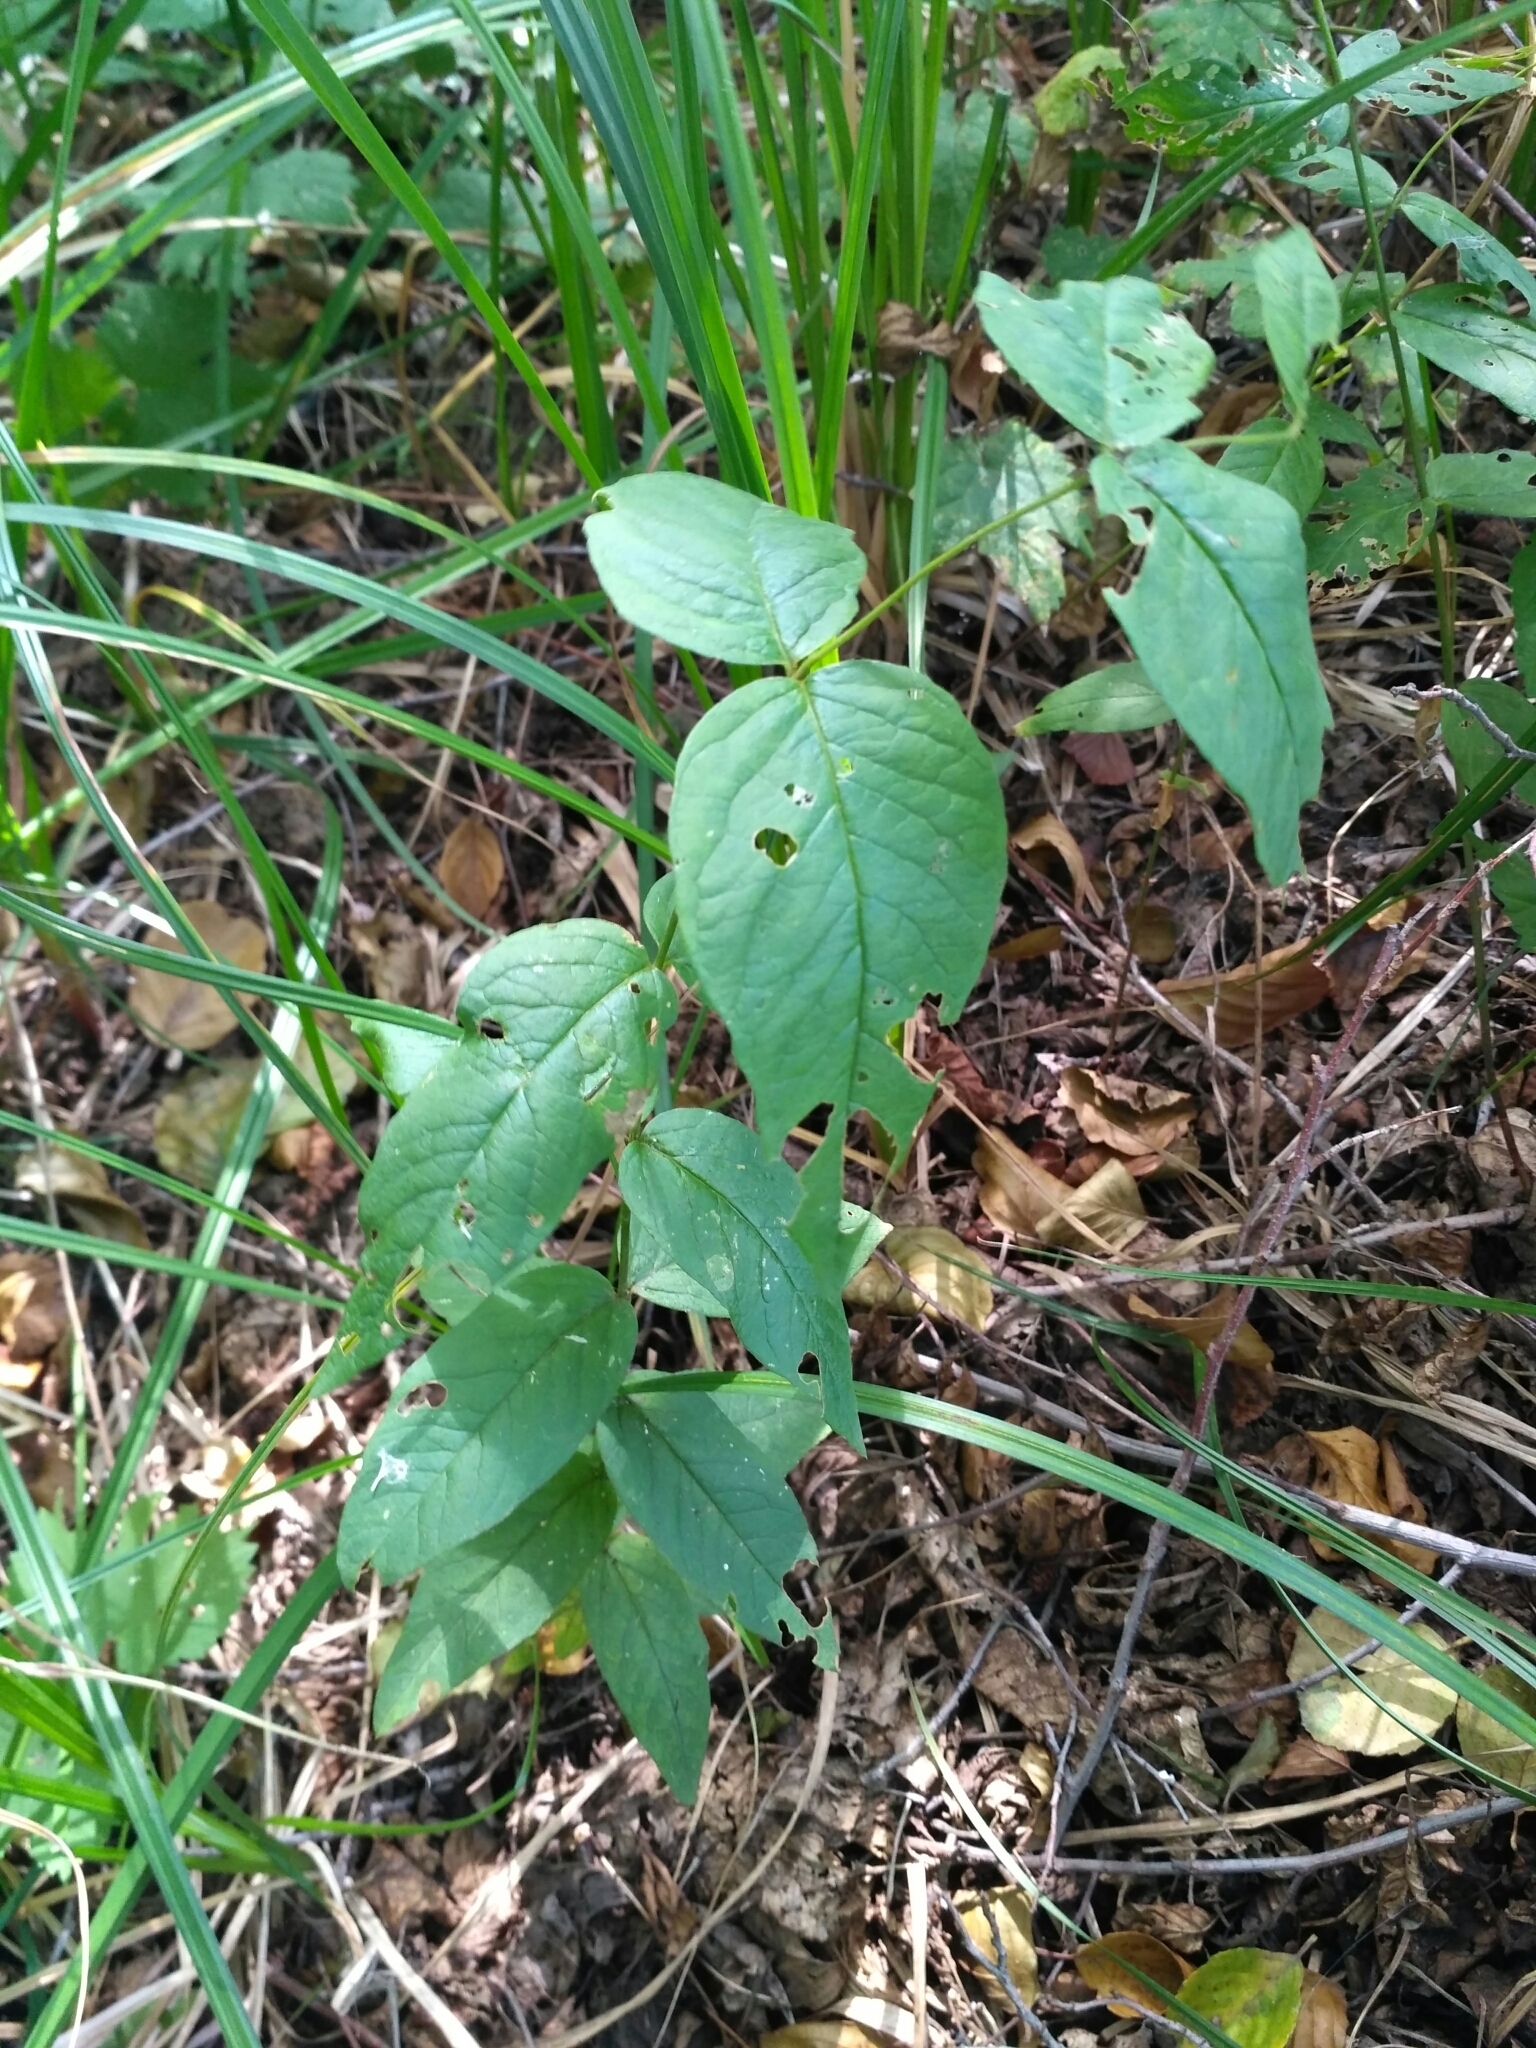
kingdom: Plantae
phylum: Tracheophyta
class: Magnoliopsida
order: Ericales
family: Primulaceae
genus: Lysimachia
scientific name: Lysimachia vulgaris
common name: Yellow loosestrife
